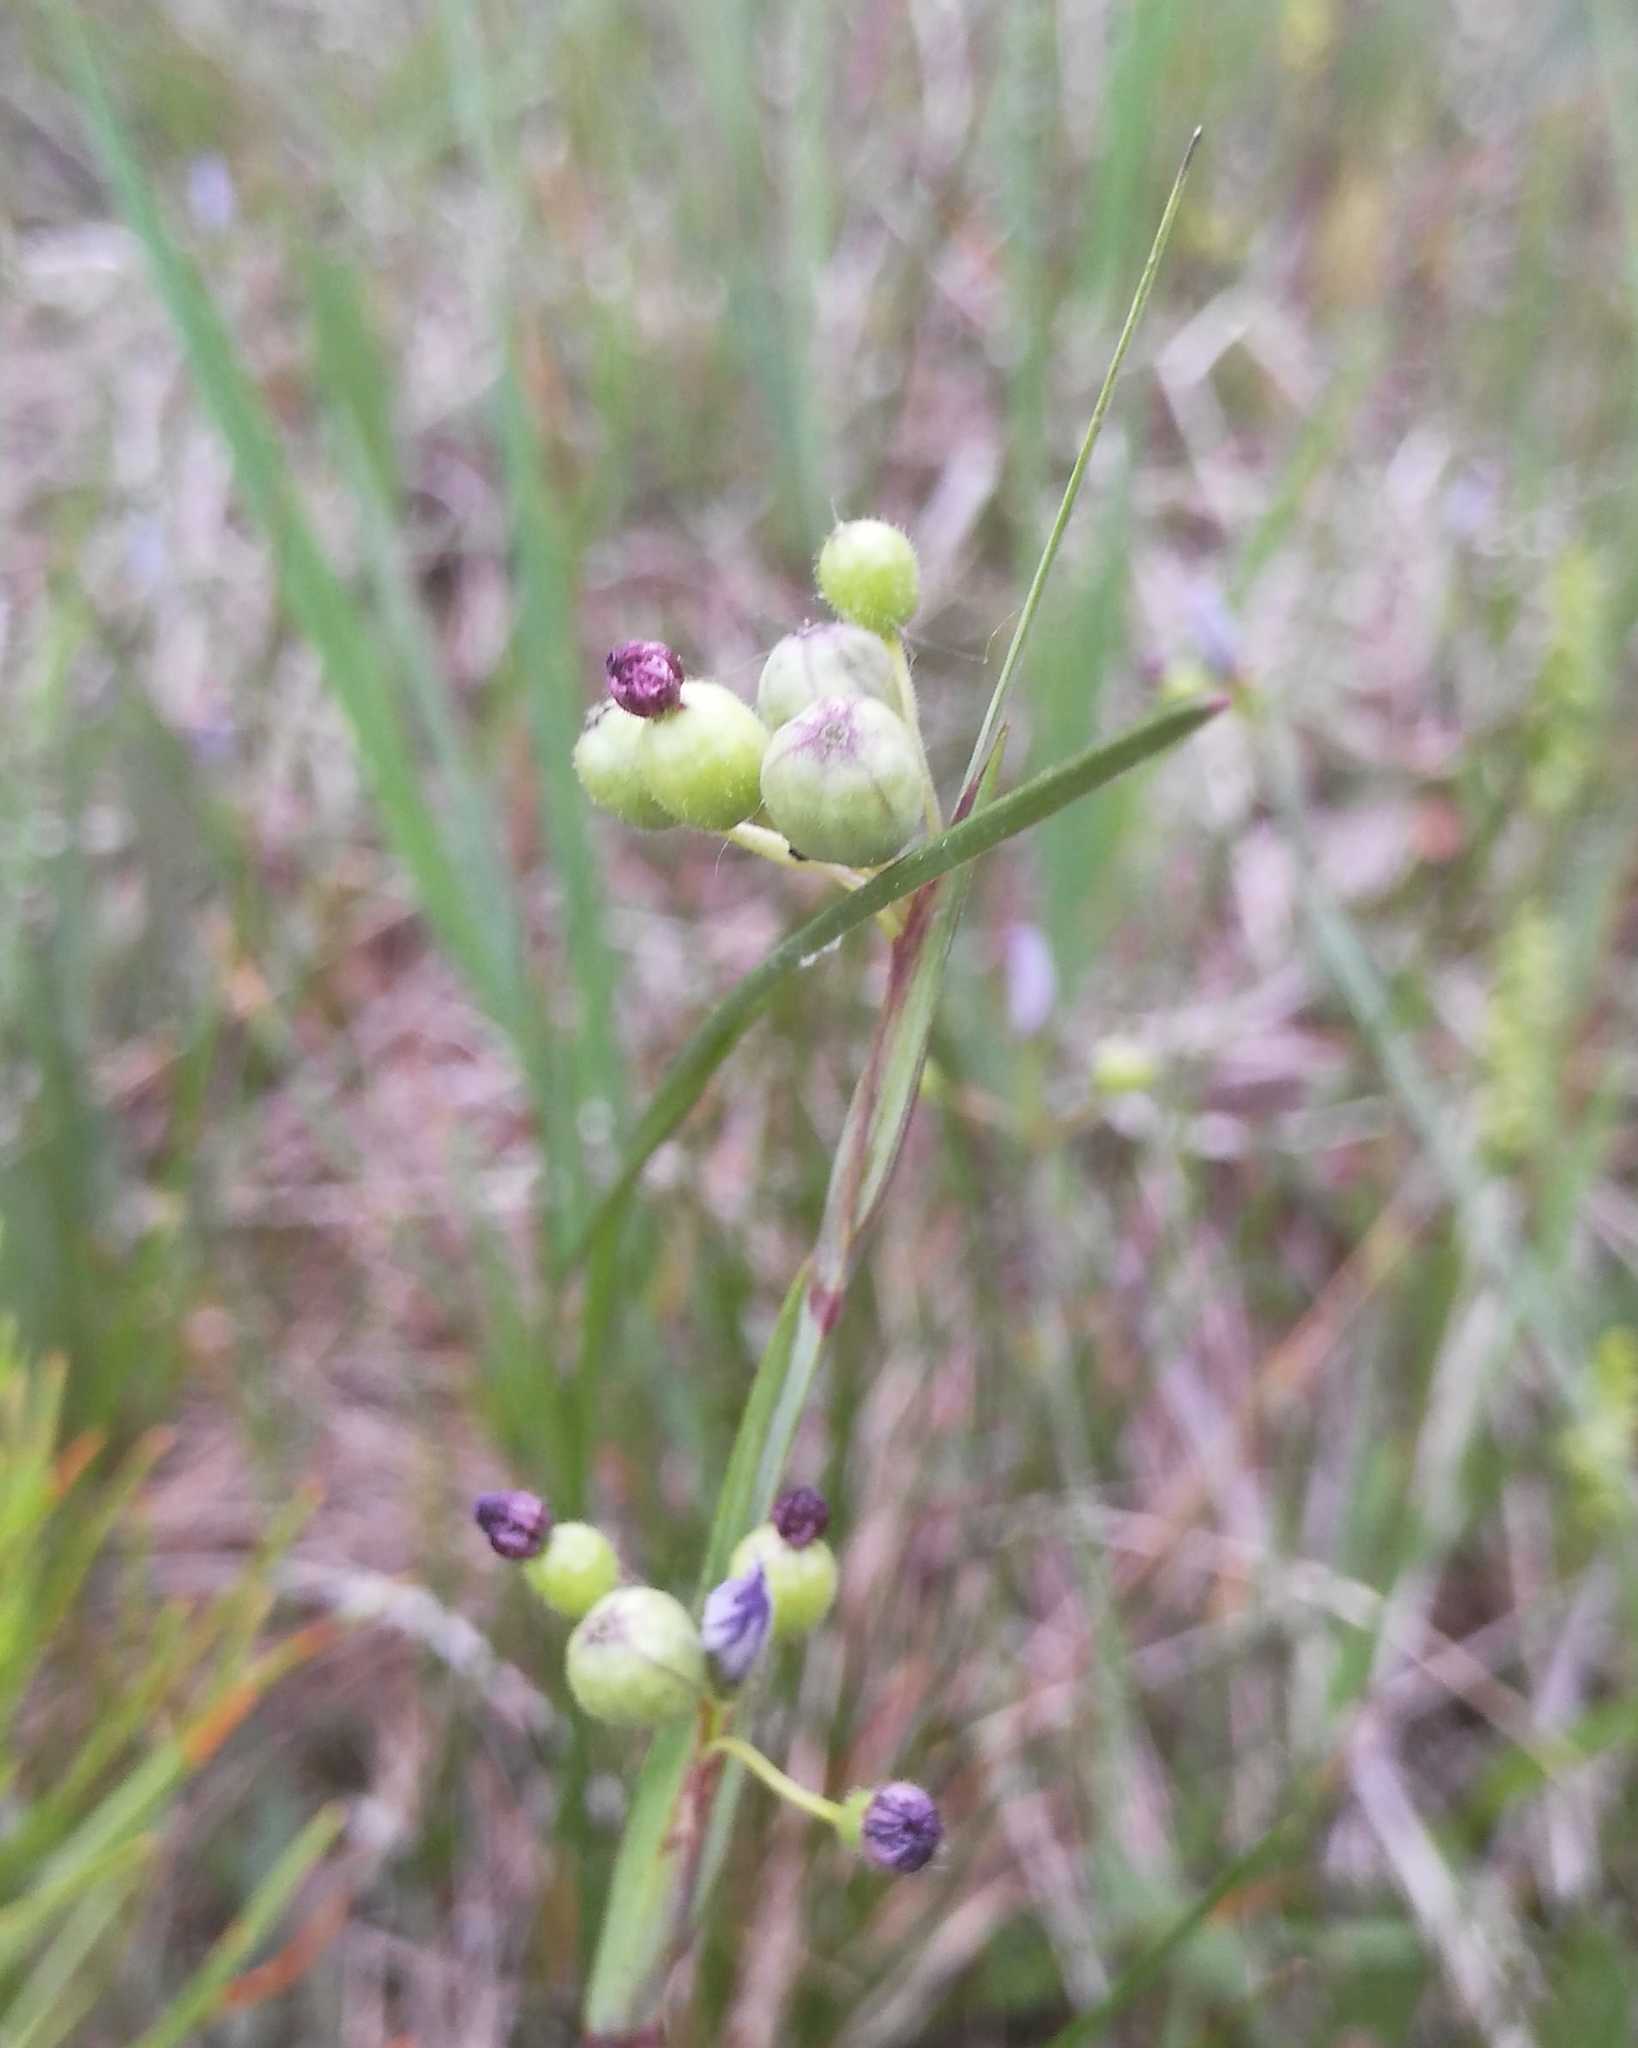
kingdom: Plantae
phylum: Tracheophyta
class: Liliopsida
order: Asparagales
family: Iridaceae
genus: Sisyrinchium
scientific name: Sisyrinchium montanum
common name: American blue-eyed-grass
